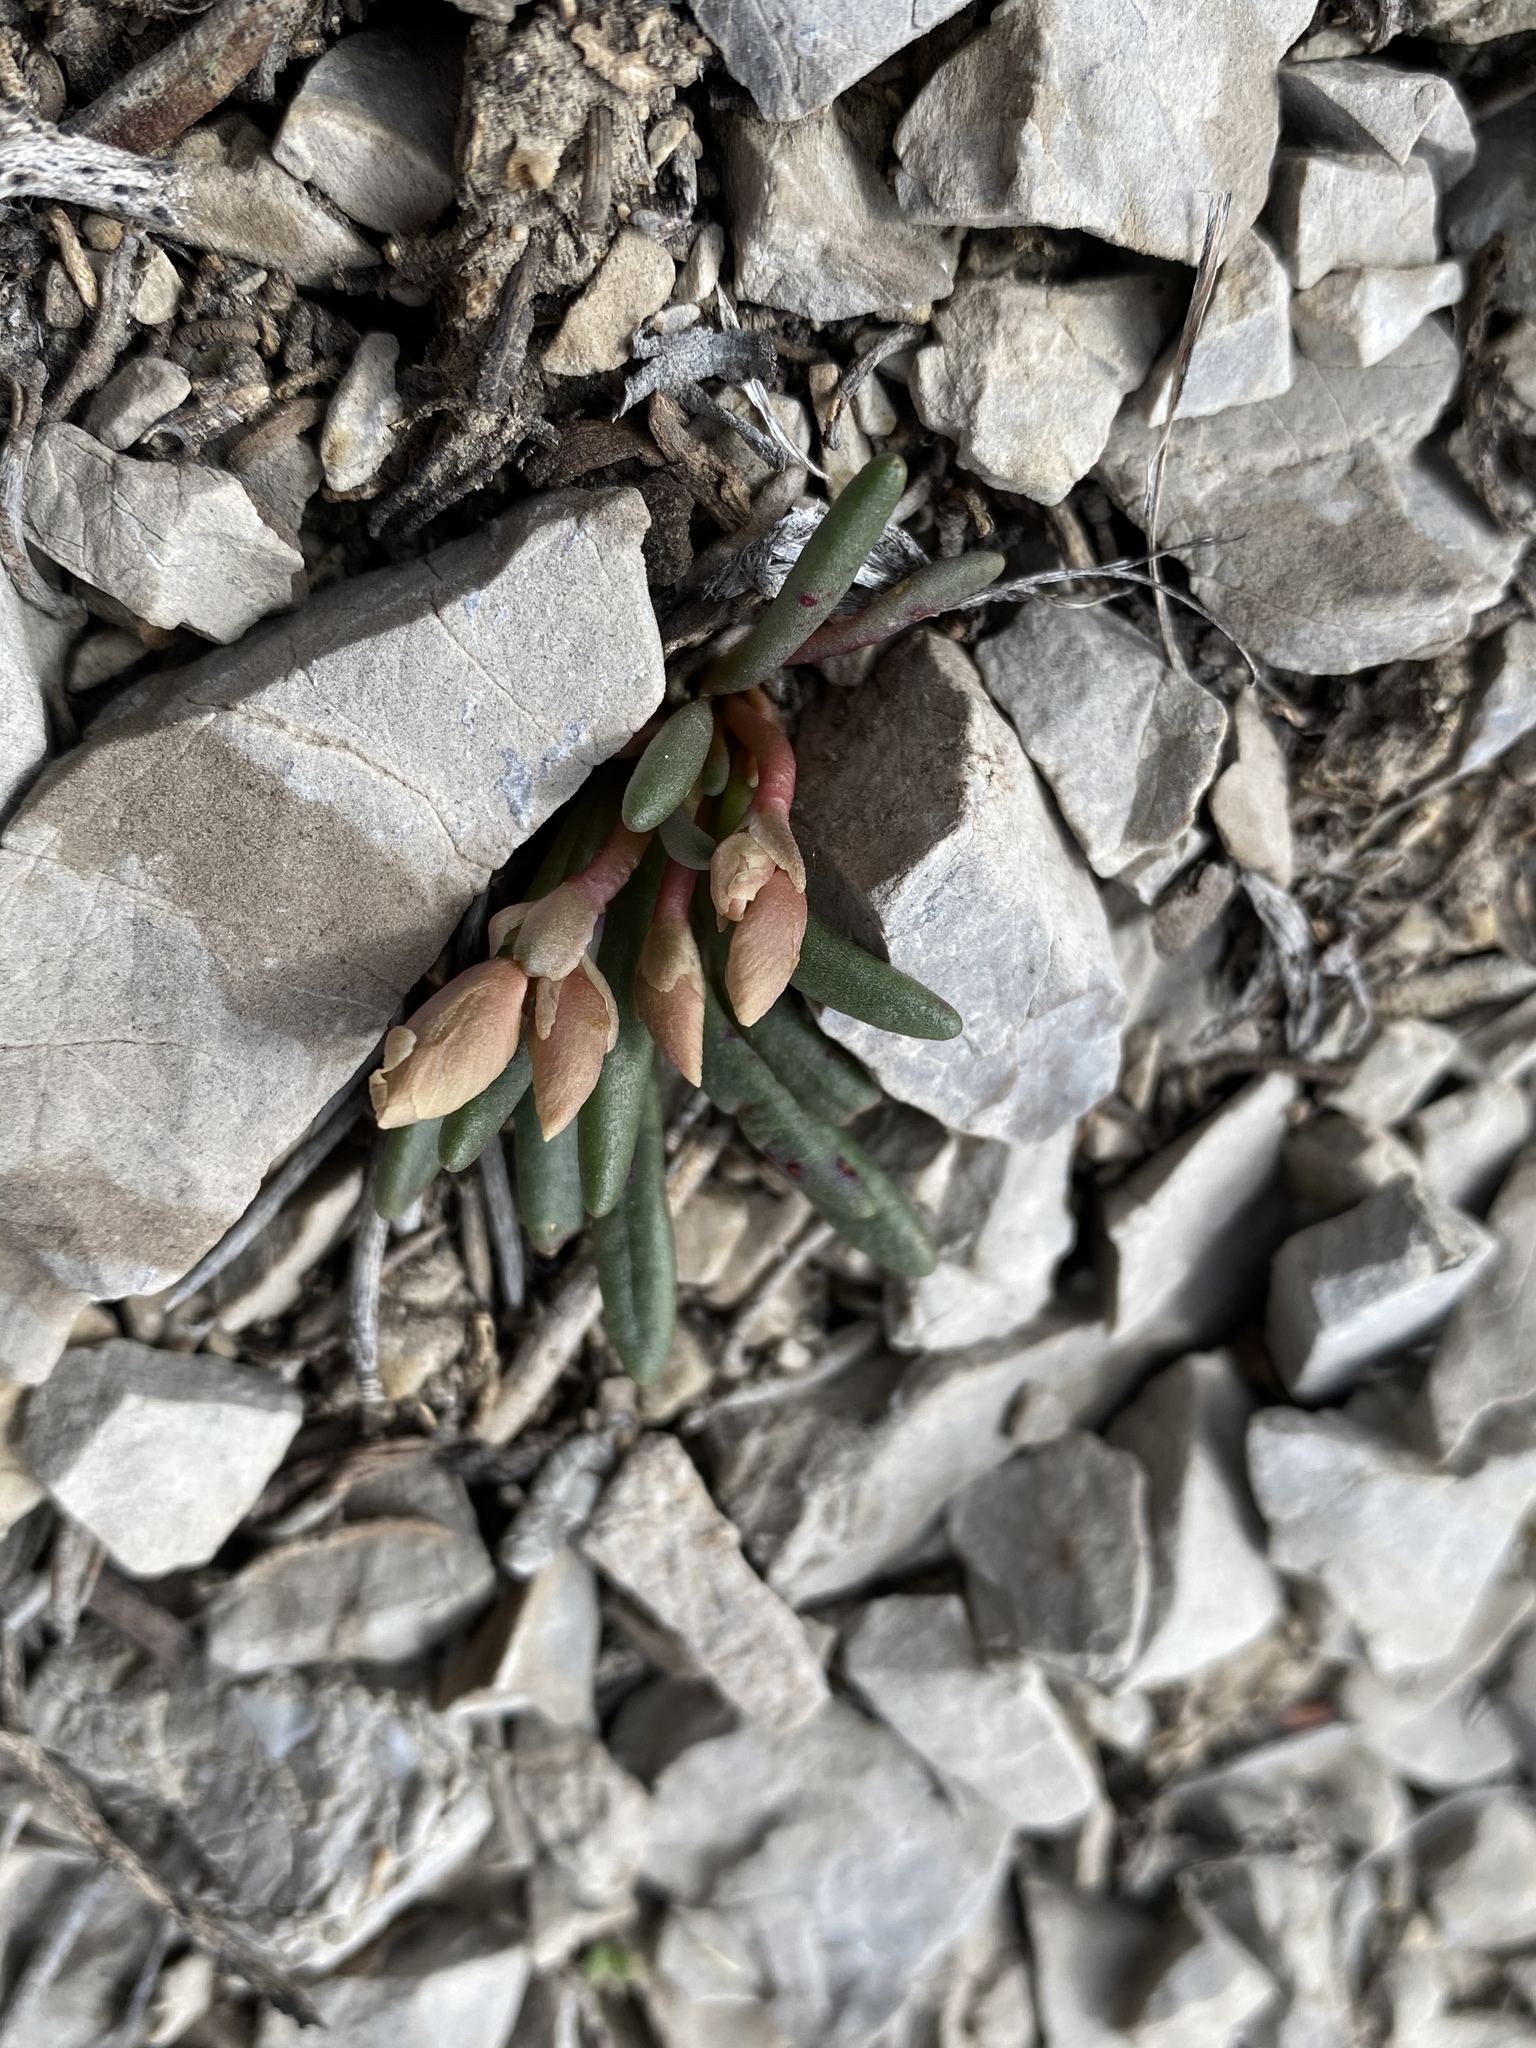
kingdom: Plantae
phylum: Tracheophyta
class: Magnoliopsida
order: Caryophyllales
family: Montiaceae
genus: Lewisia
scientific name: Lewisia maguirei
